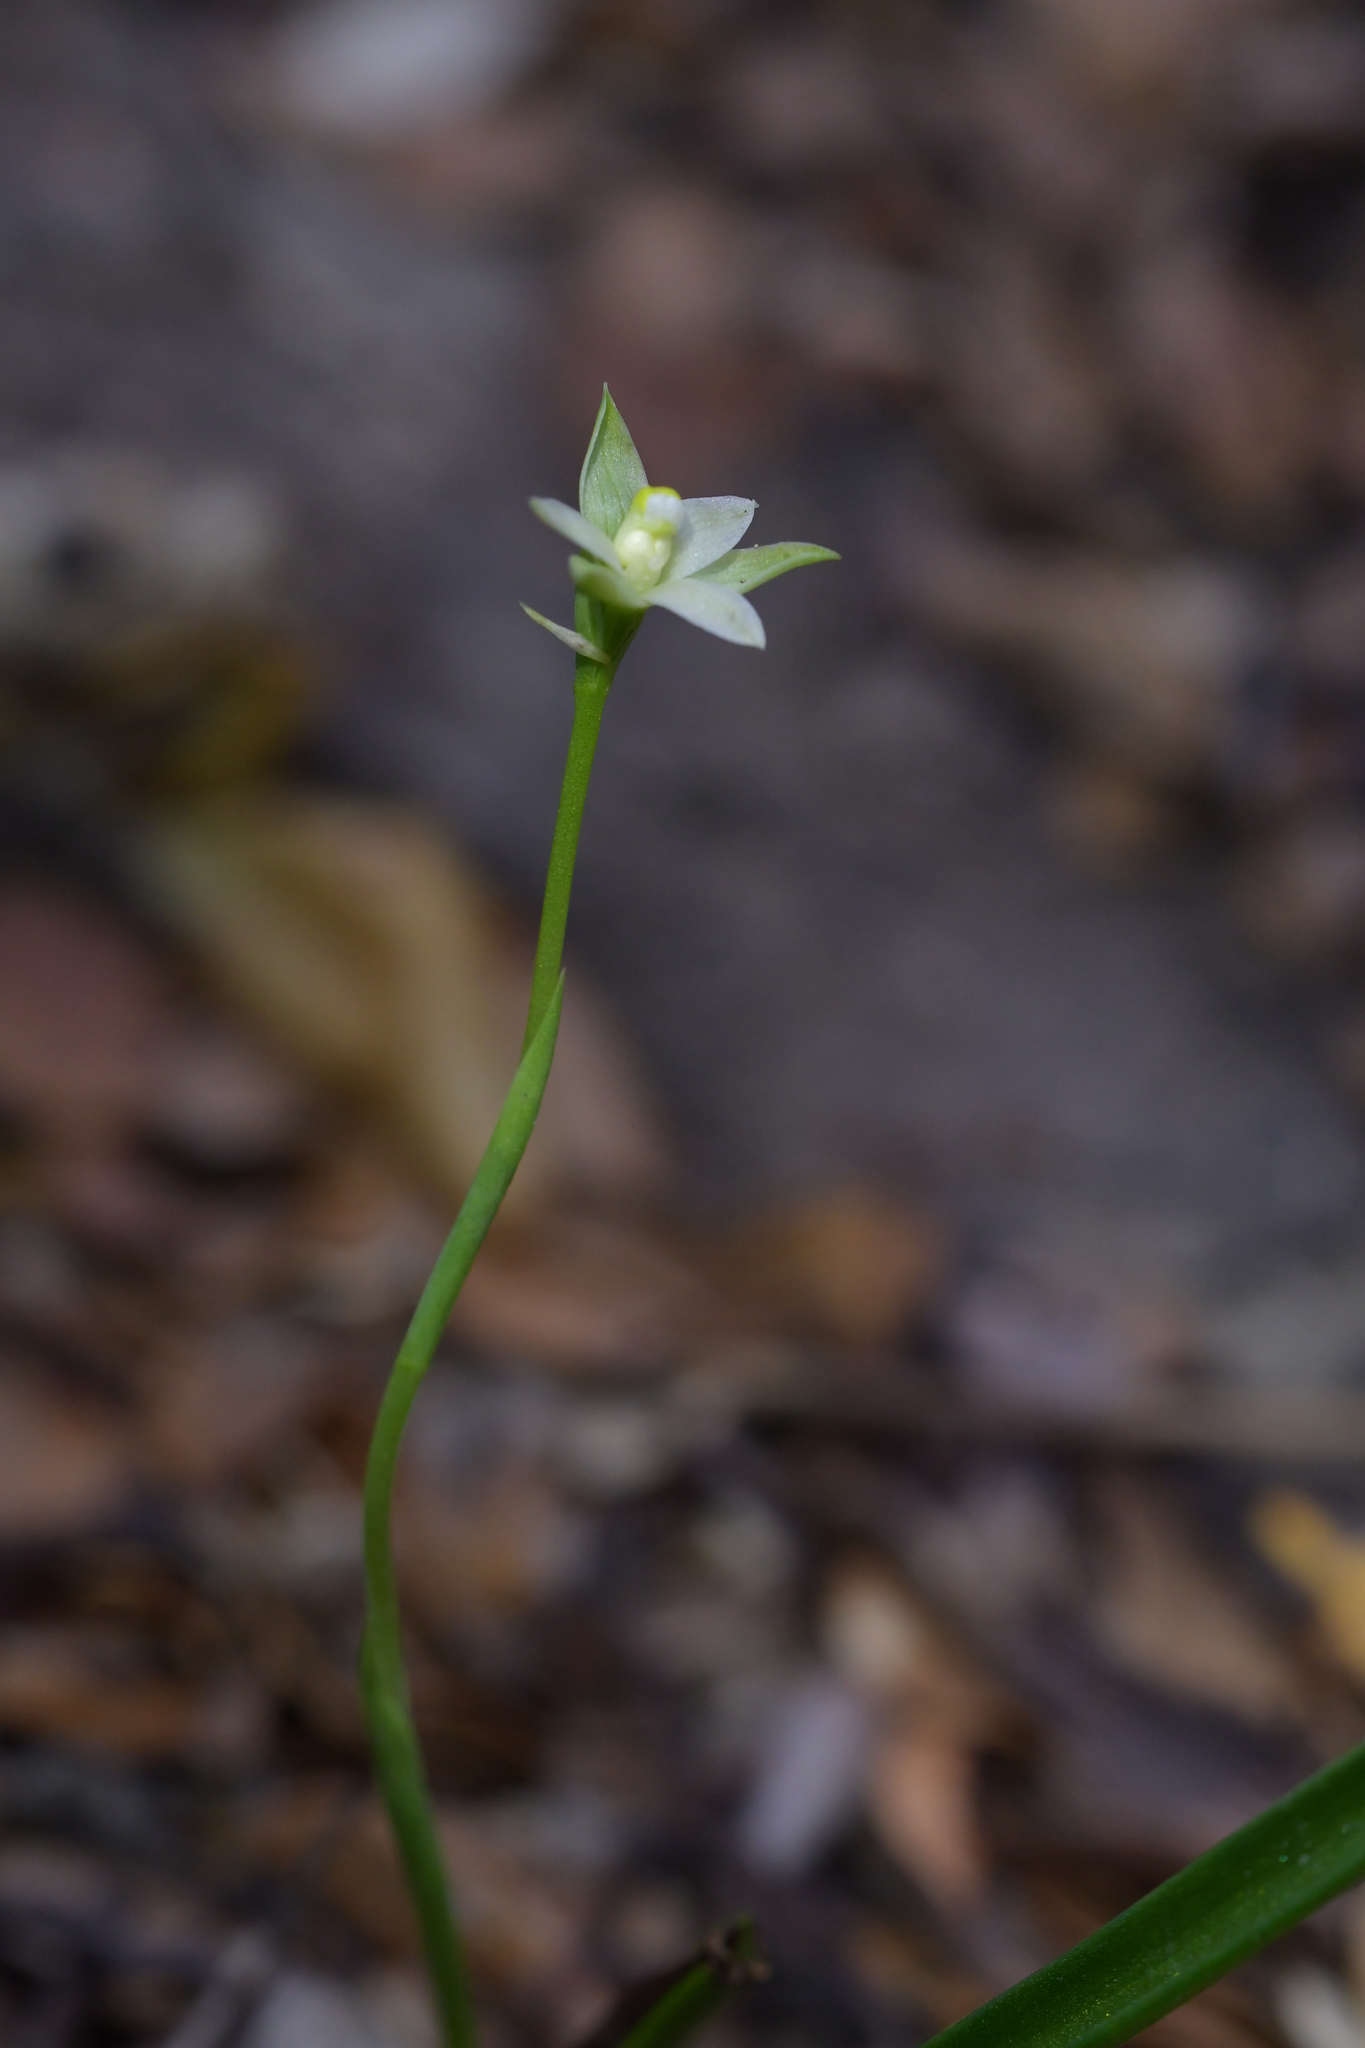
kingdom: Plantae
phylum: Tracheophyta
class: Liliopsida
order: Asparagales
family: Orchidaceae
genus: Thelymitra
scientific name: Thelymitra longifolia
